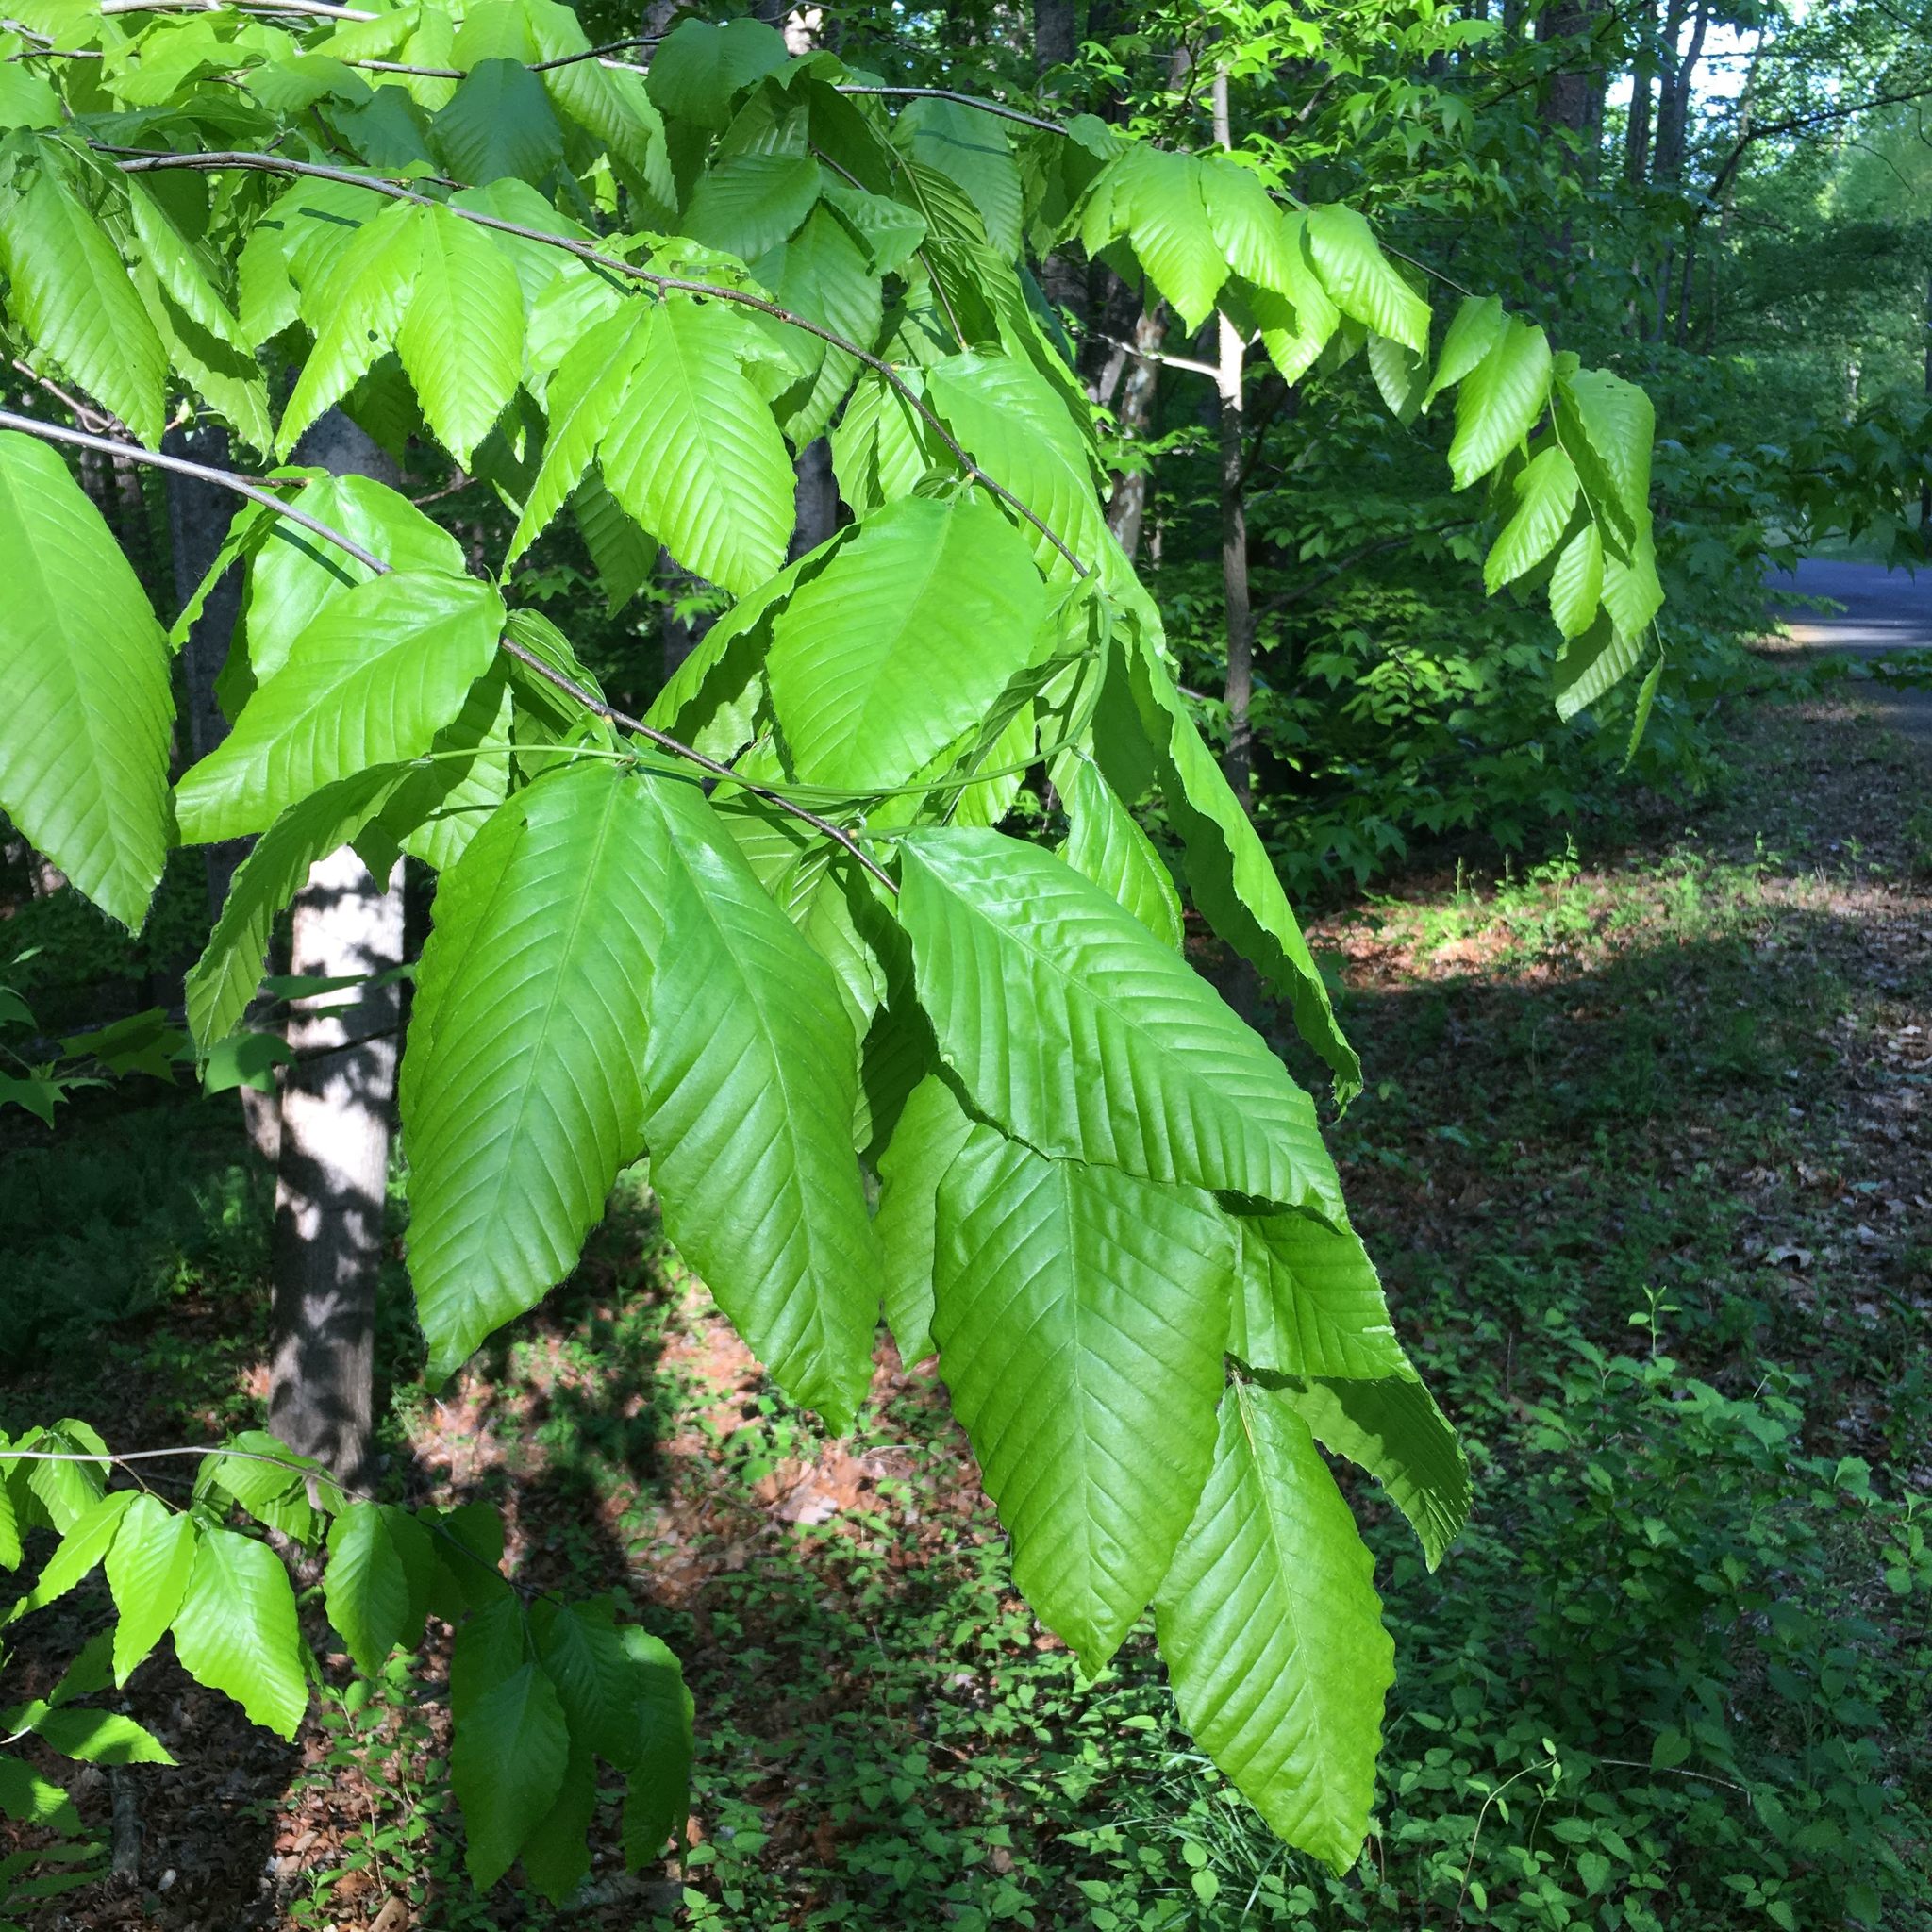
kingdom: Plantae
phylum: Tracheophyta
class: Magnoliopsida
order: Fagales
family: Fagaceae
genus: Fagus
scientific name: Fagus grandifolia
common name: American beech
